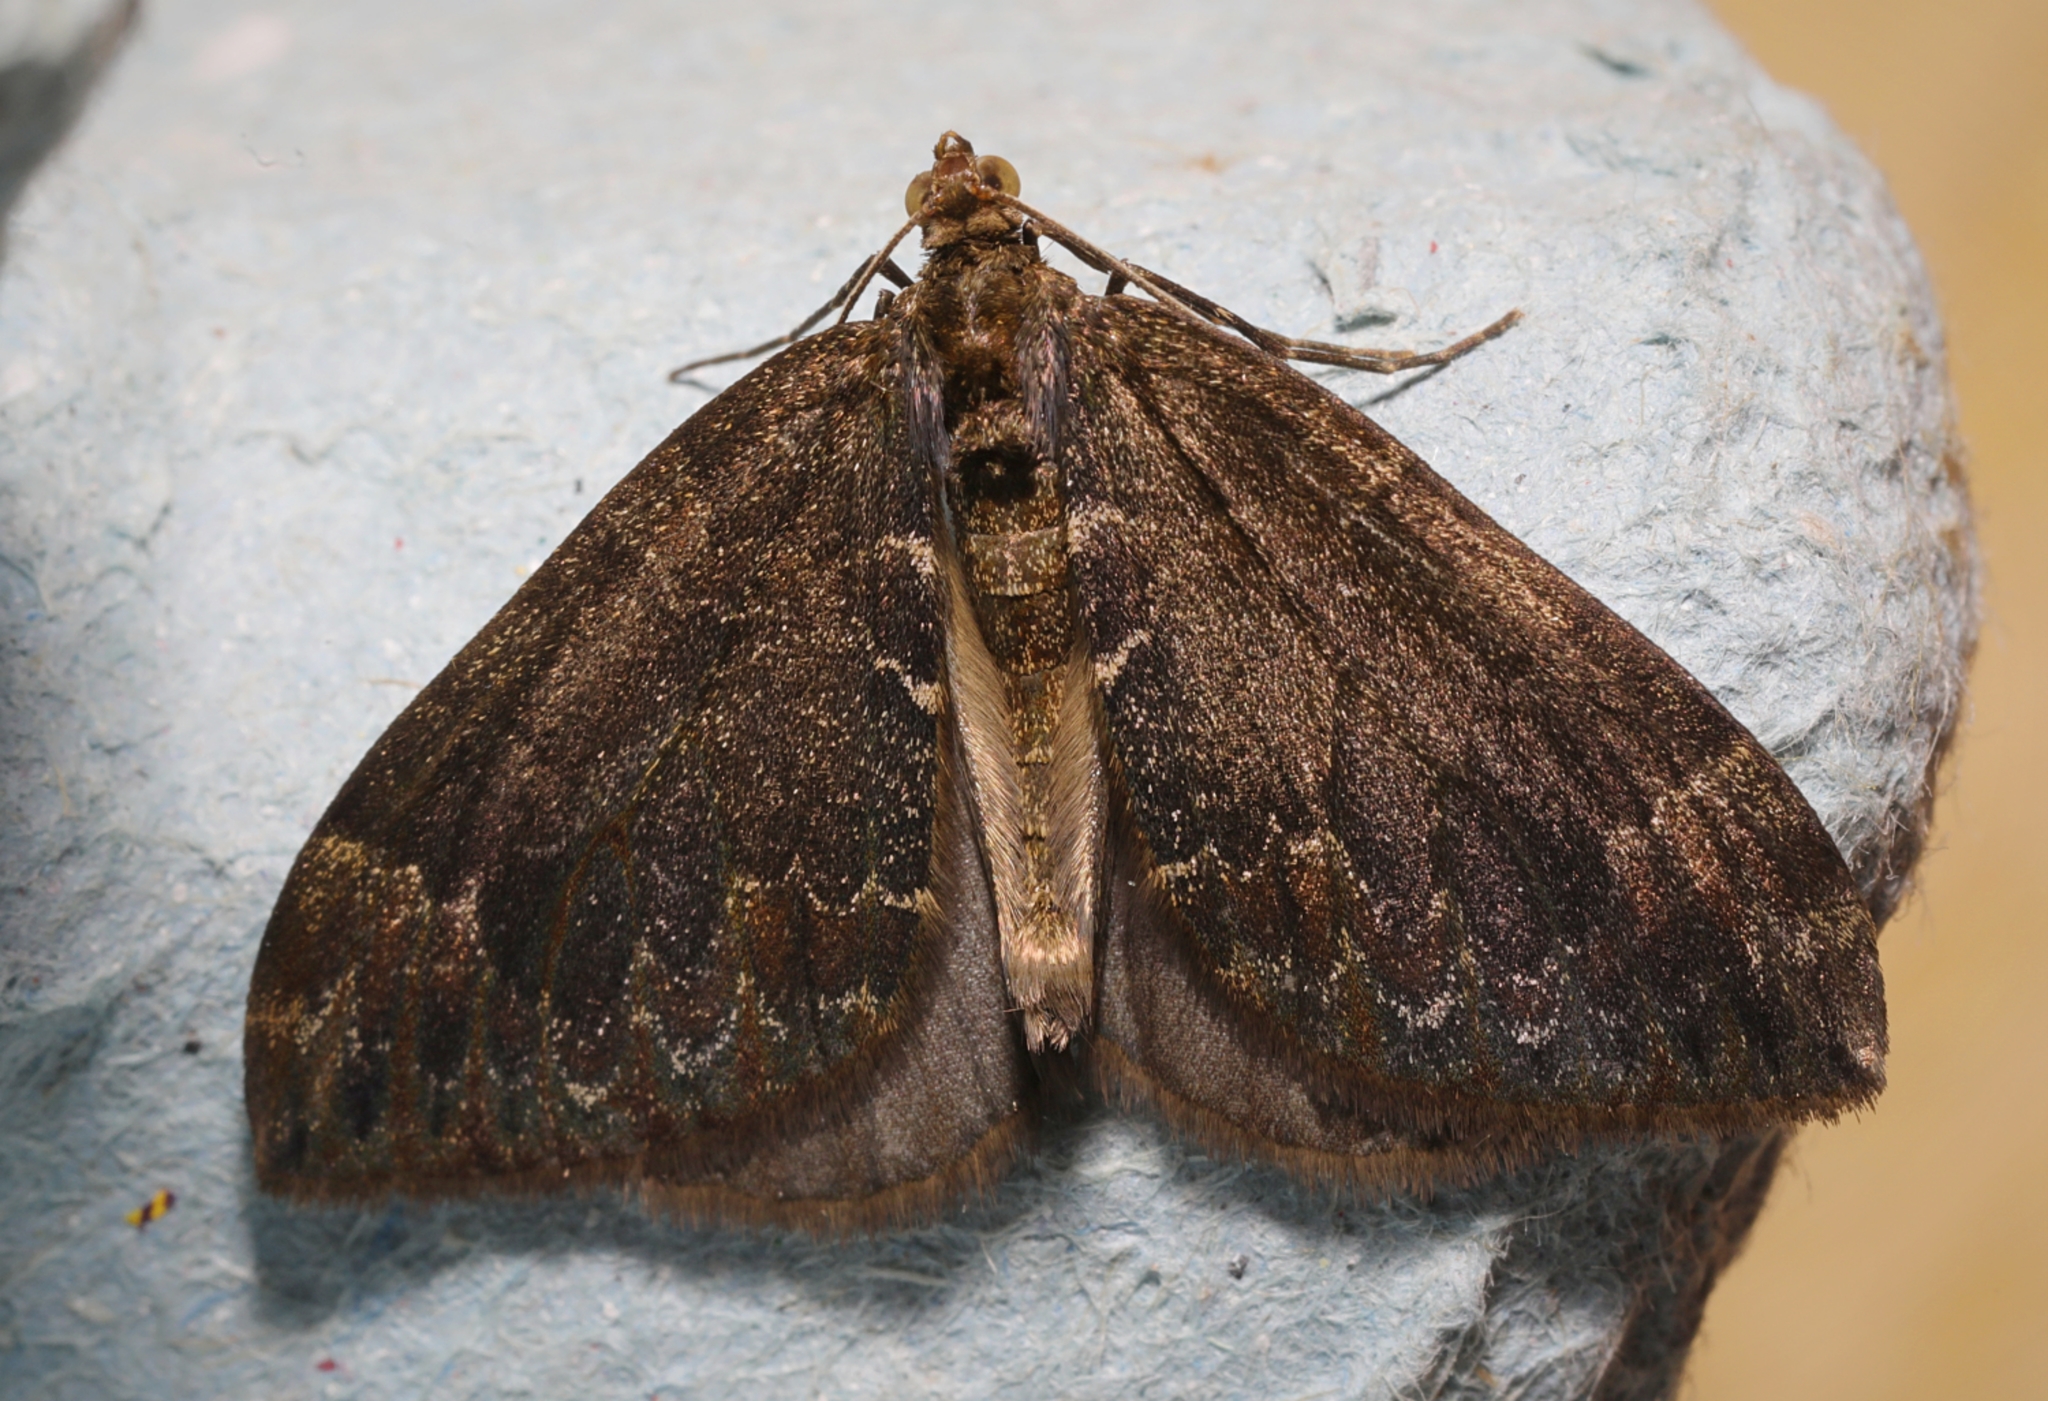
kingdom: Animalia
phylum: Arthropoda
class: Insecta
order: Lepidoptera
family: Geometridae
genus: Dysstroma
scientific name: Dysstroma truncata
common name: Common marbled carpet
